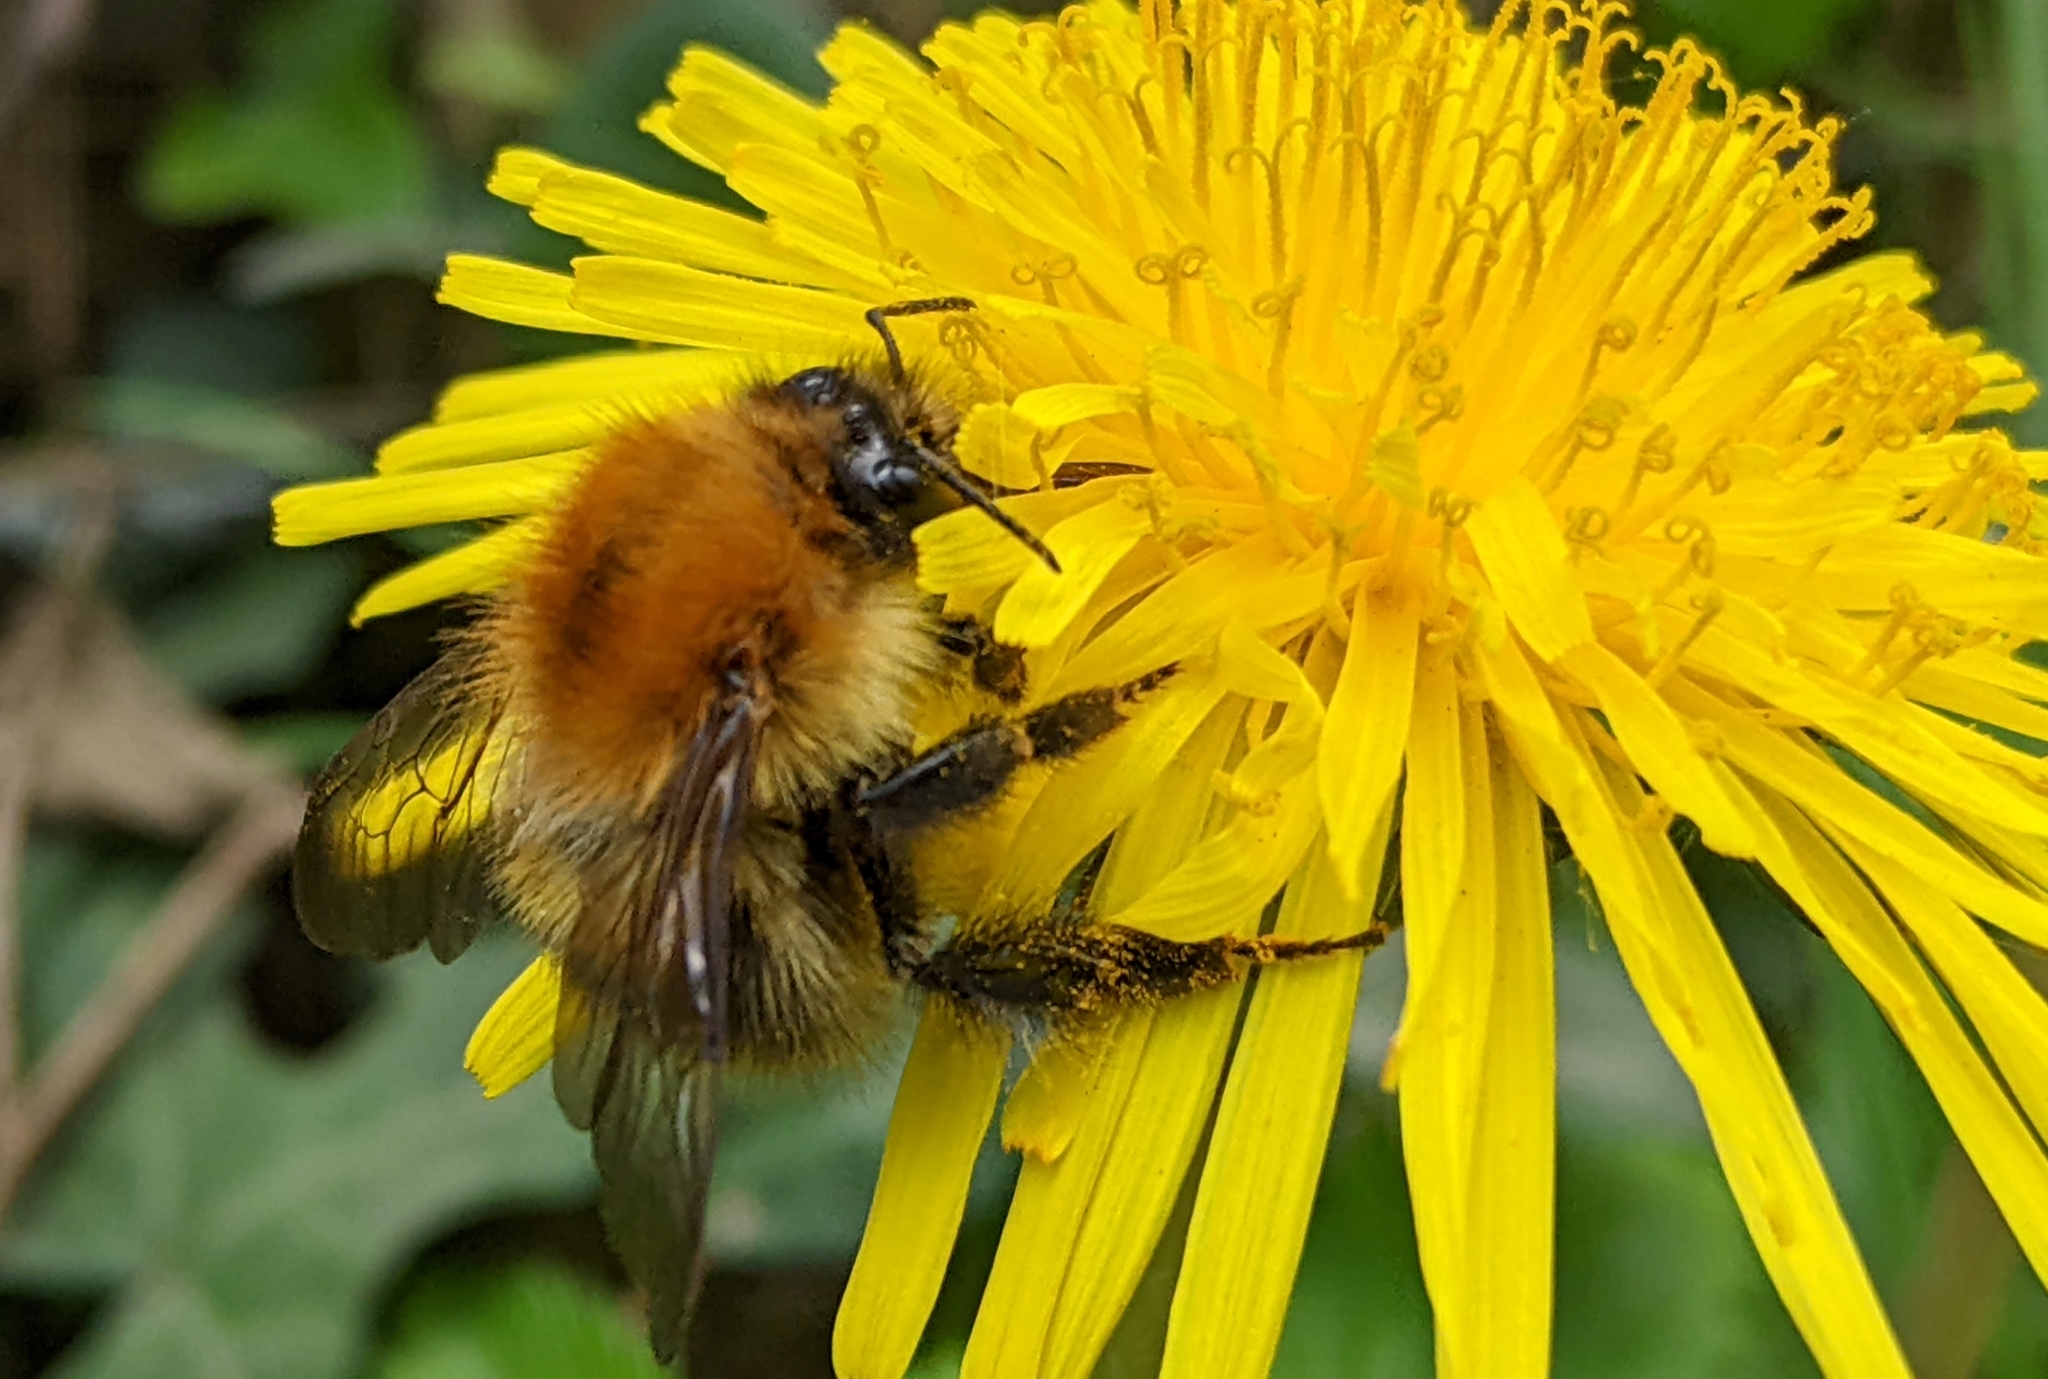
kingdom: Animalia
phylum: Arthropoda
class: Insecta
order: Hymenoptera
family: Apidae
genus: Bombus
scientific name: Bombus pascuorum
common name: Common carder bee
